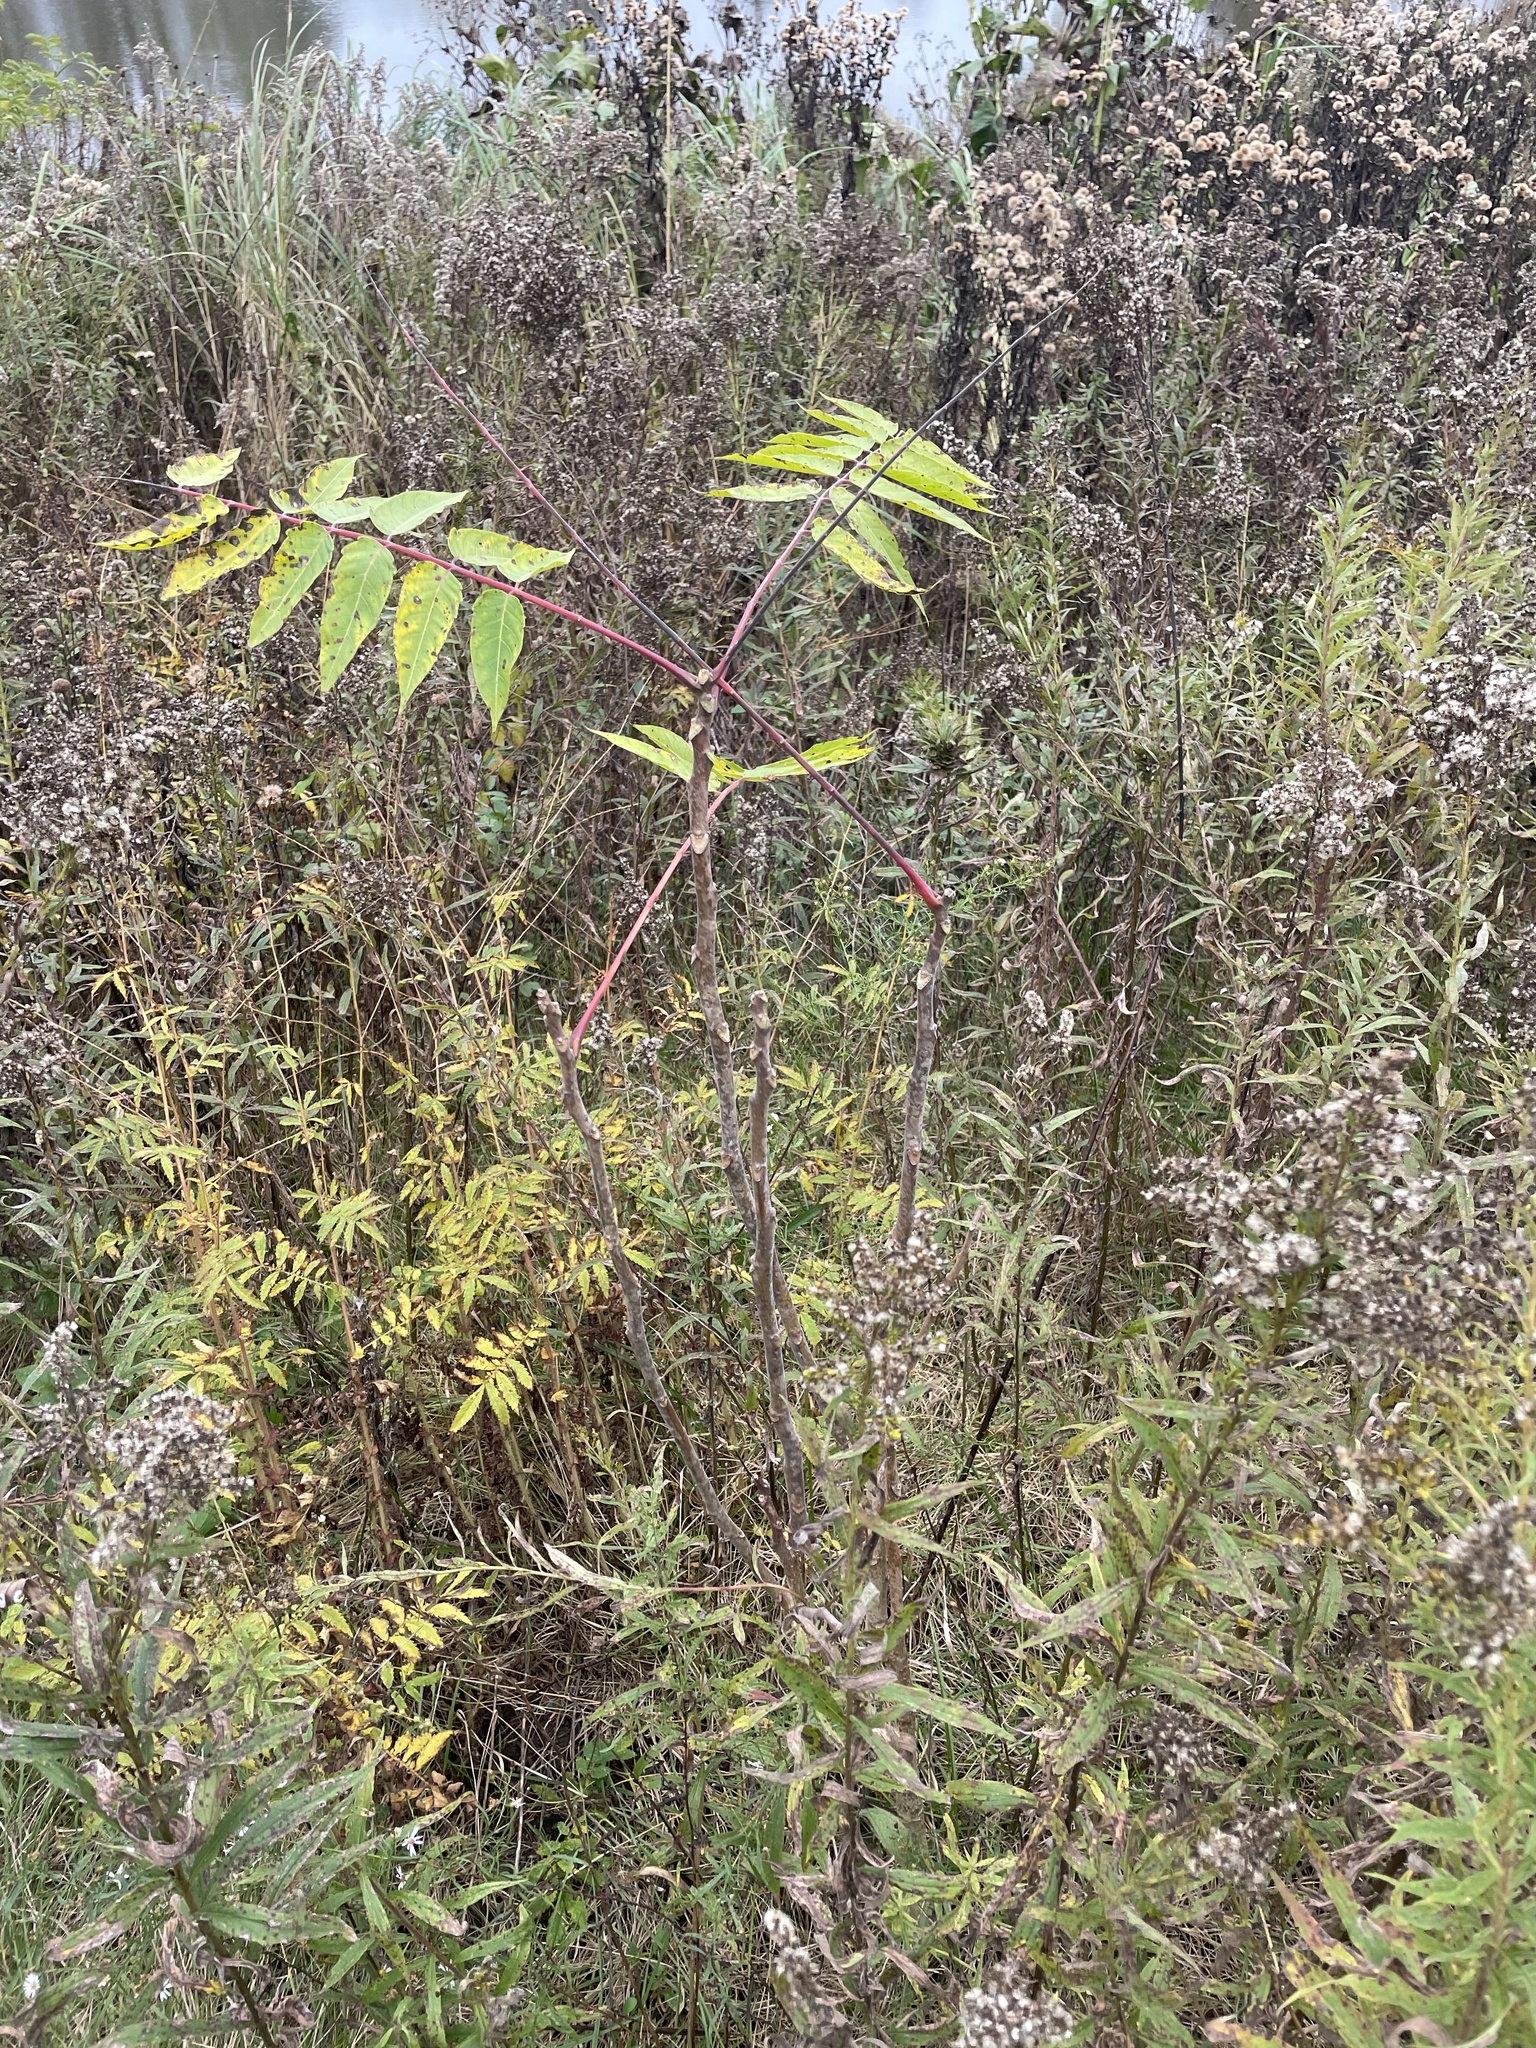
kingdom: Plantae
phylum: Tracheophyta
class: Magnoliopsida
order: Sapindales
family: Simaroubaceae
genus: Ailanthus
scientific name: Ailanthus altissima
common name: Tree-of-heaven
